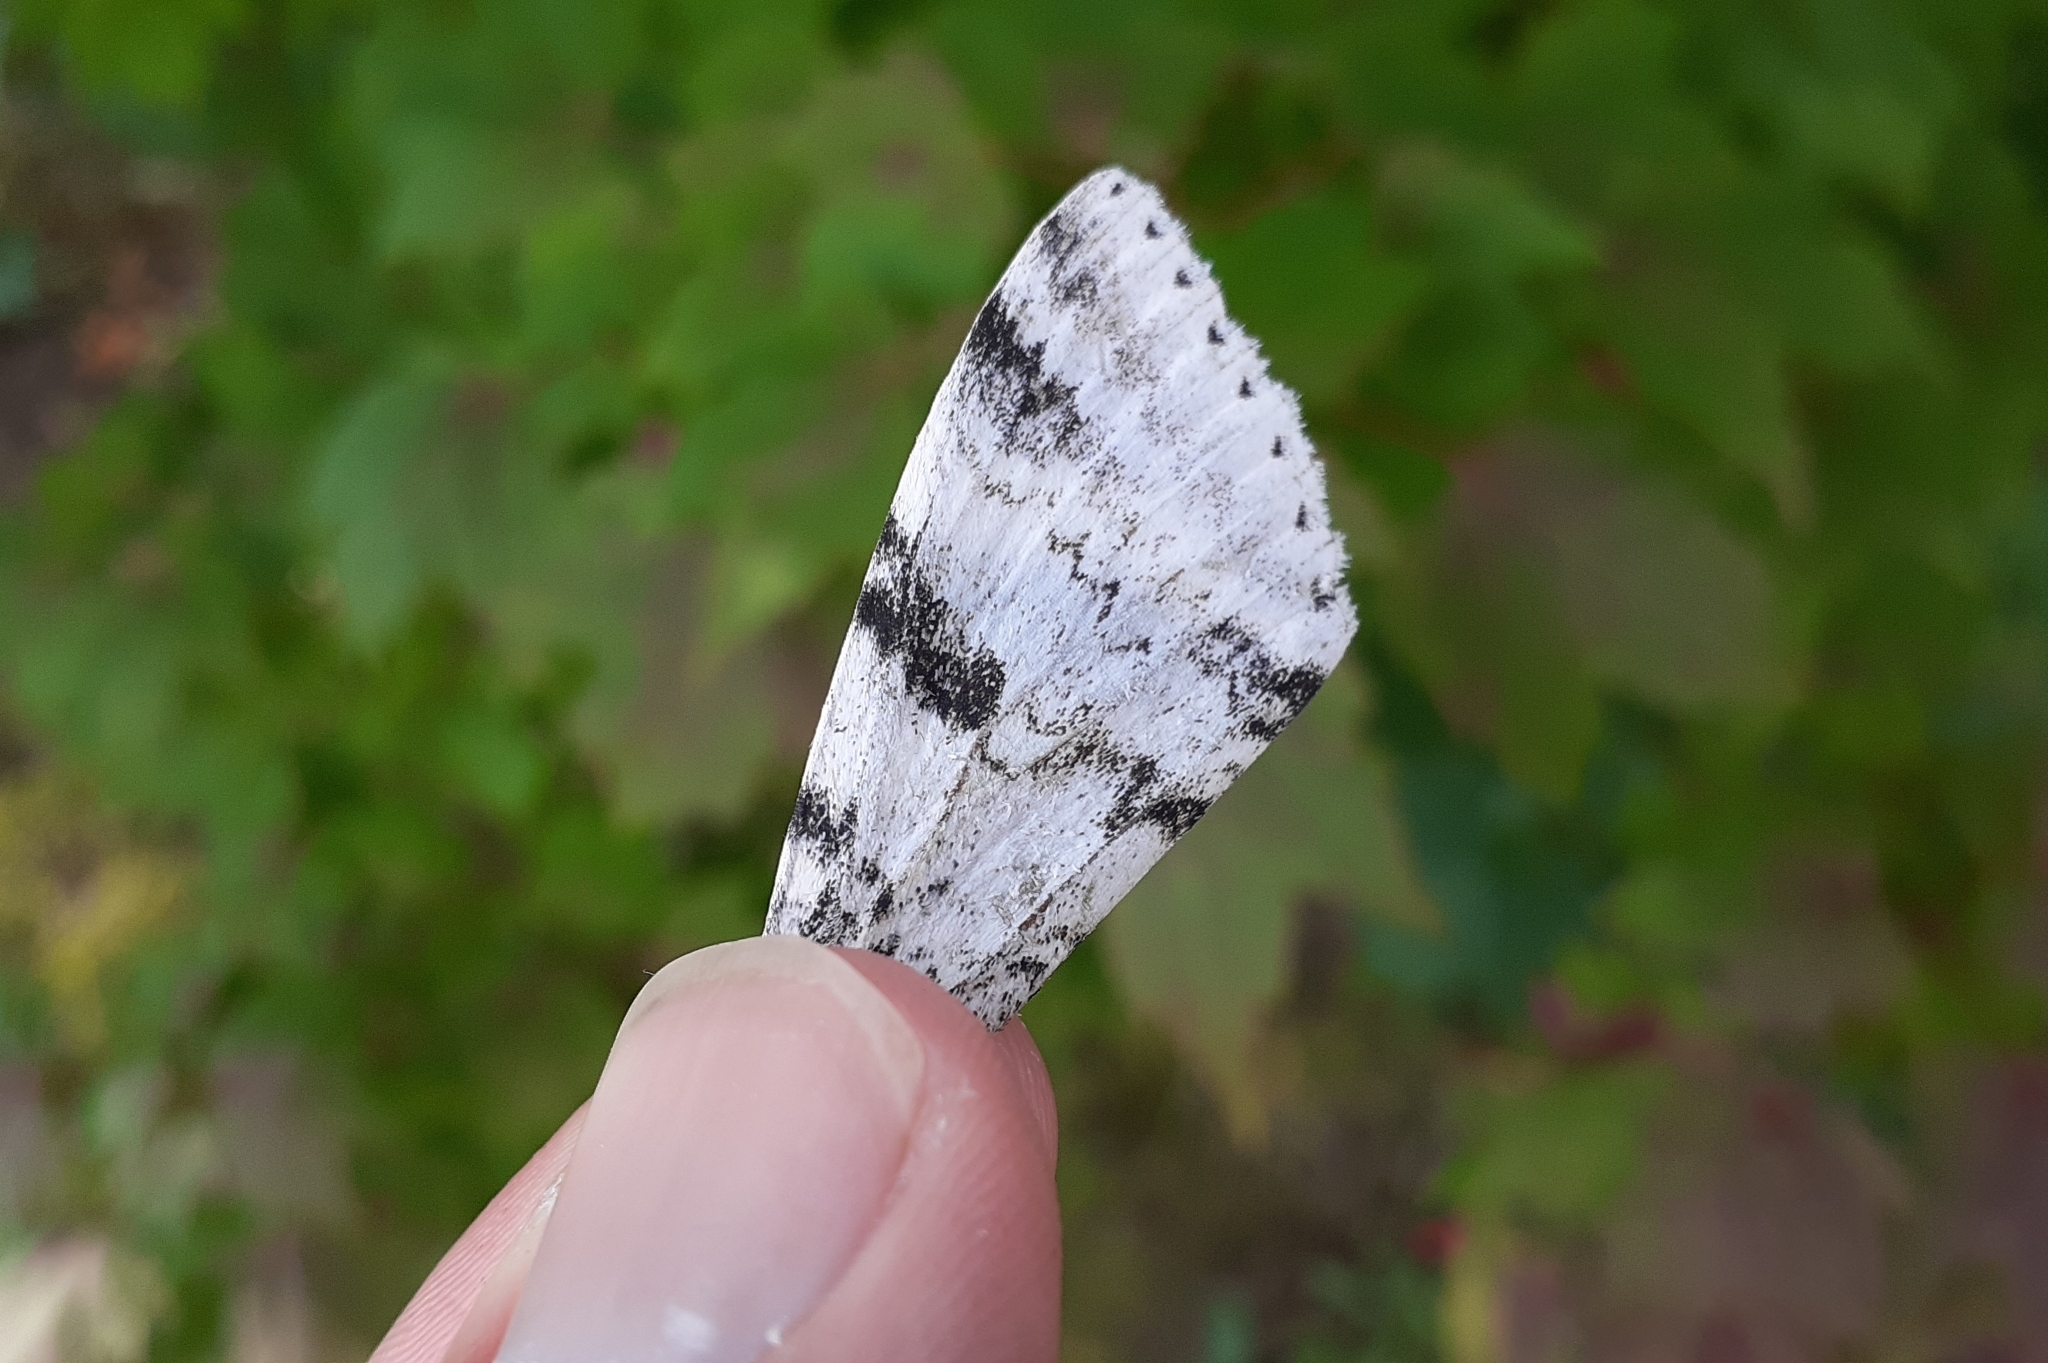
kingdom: Animalia
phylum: Arthropoda
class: Insecta
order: Lepidoptera
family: Erebidae
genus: Catocala
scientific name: Catocala relicta
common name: White underwing
